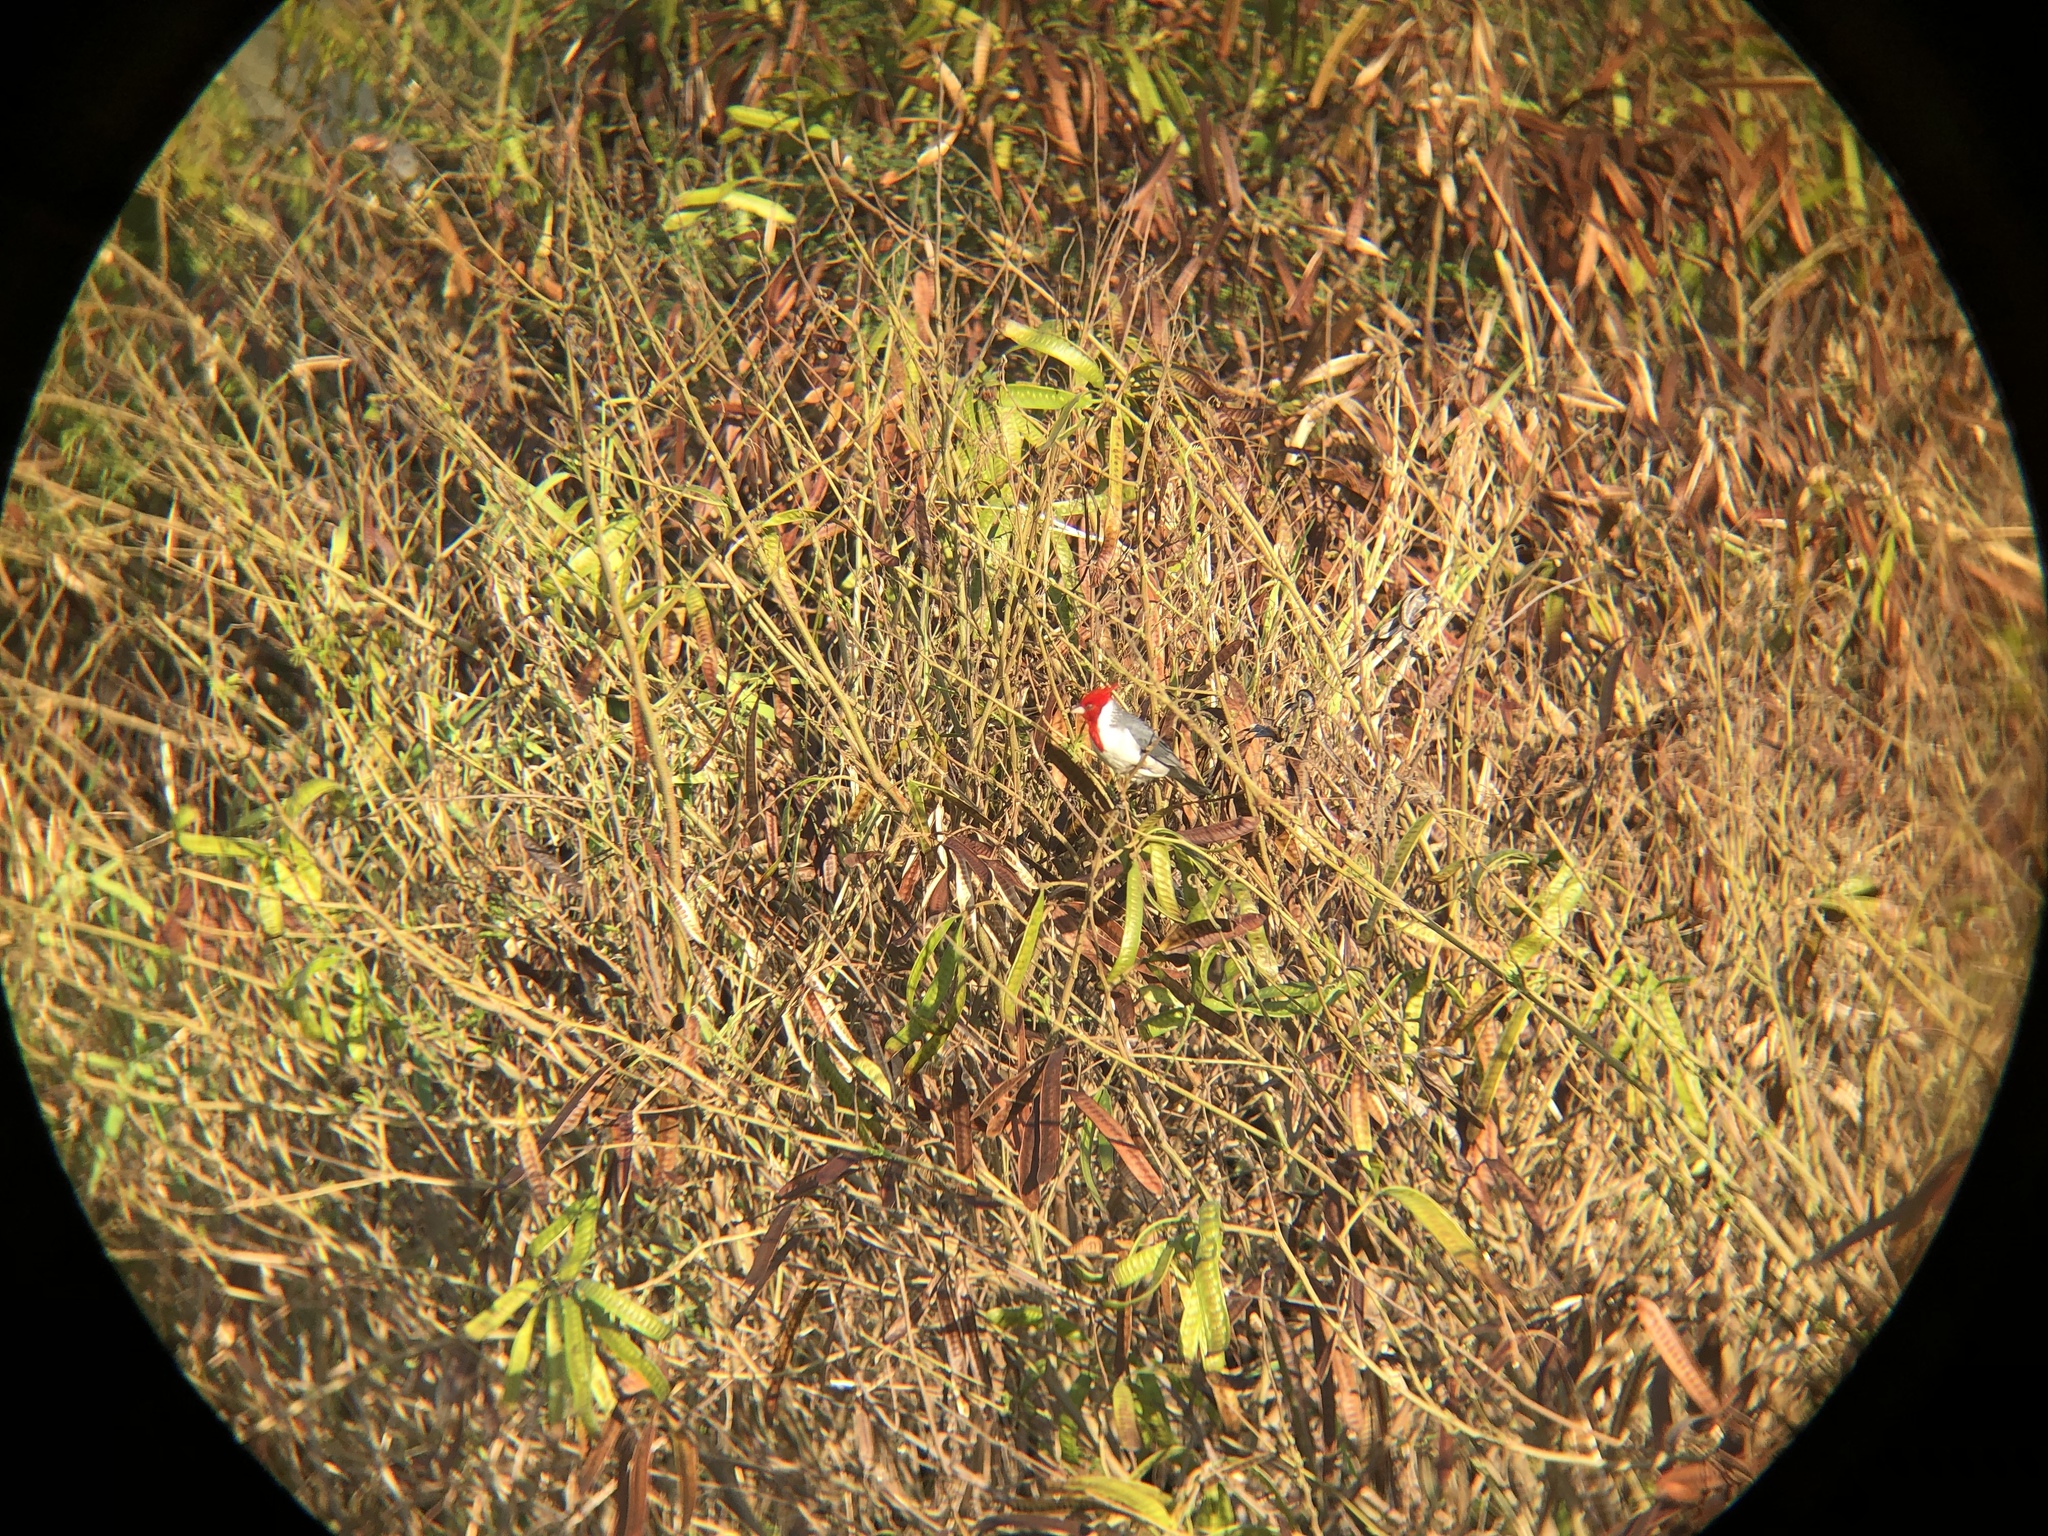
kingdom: Animalia
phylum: Chordata
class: Aves
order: Passeriformes
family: Thraupidae
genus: Paroaria
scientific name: Paroaria coronata
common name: Red-crested cardinal
